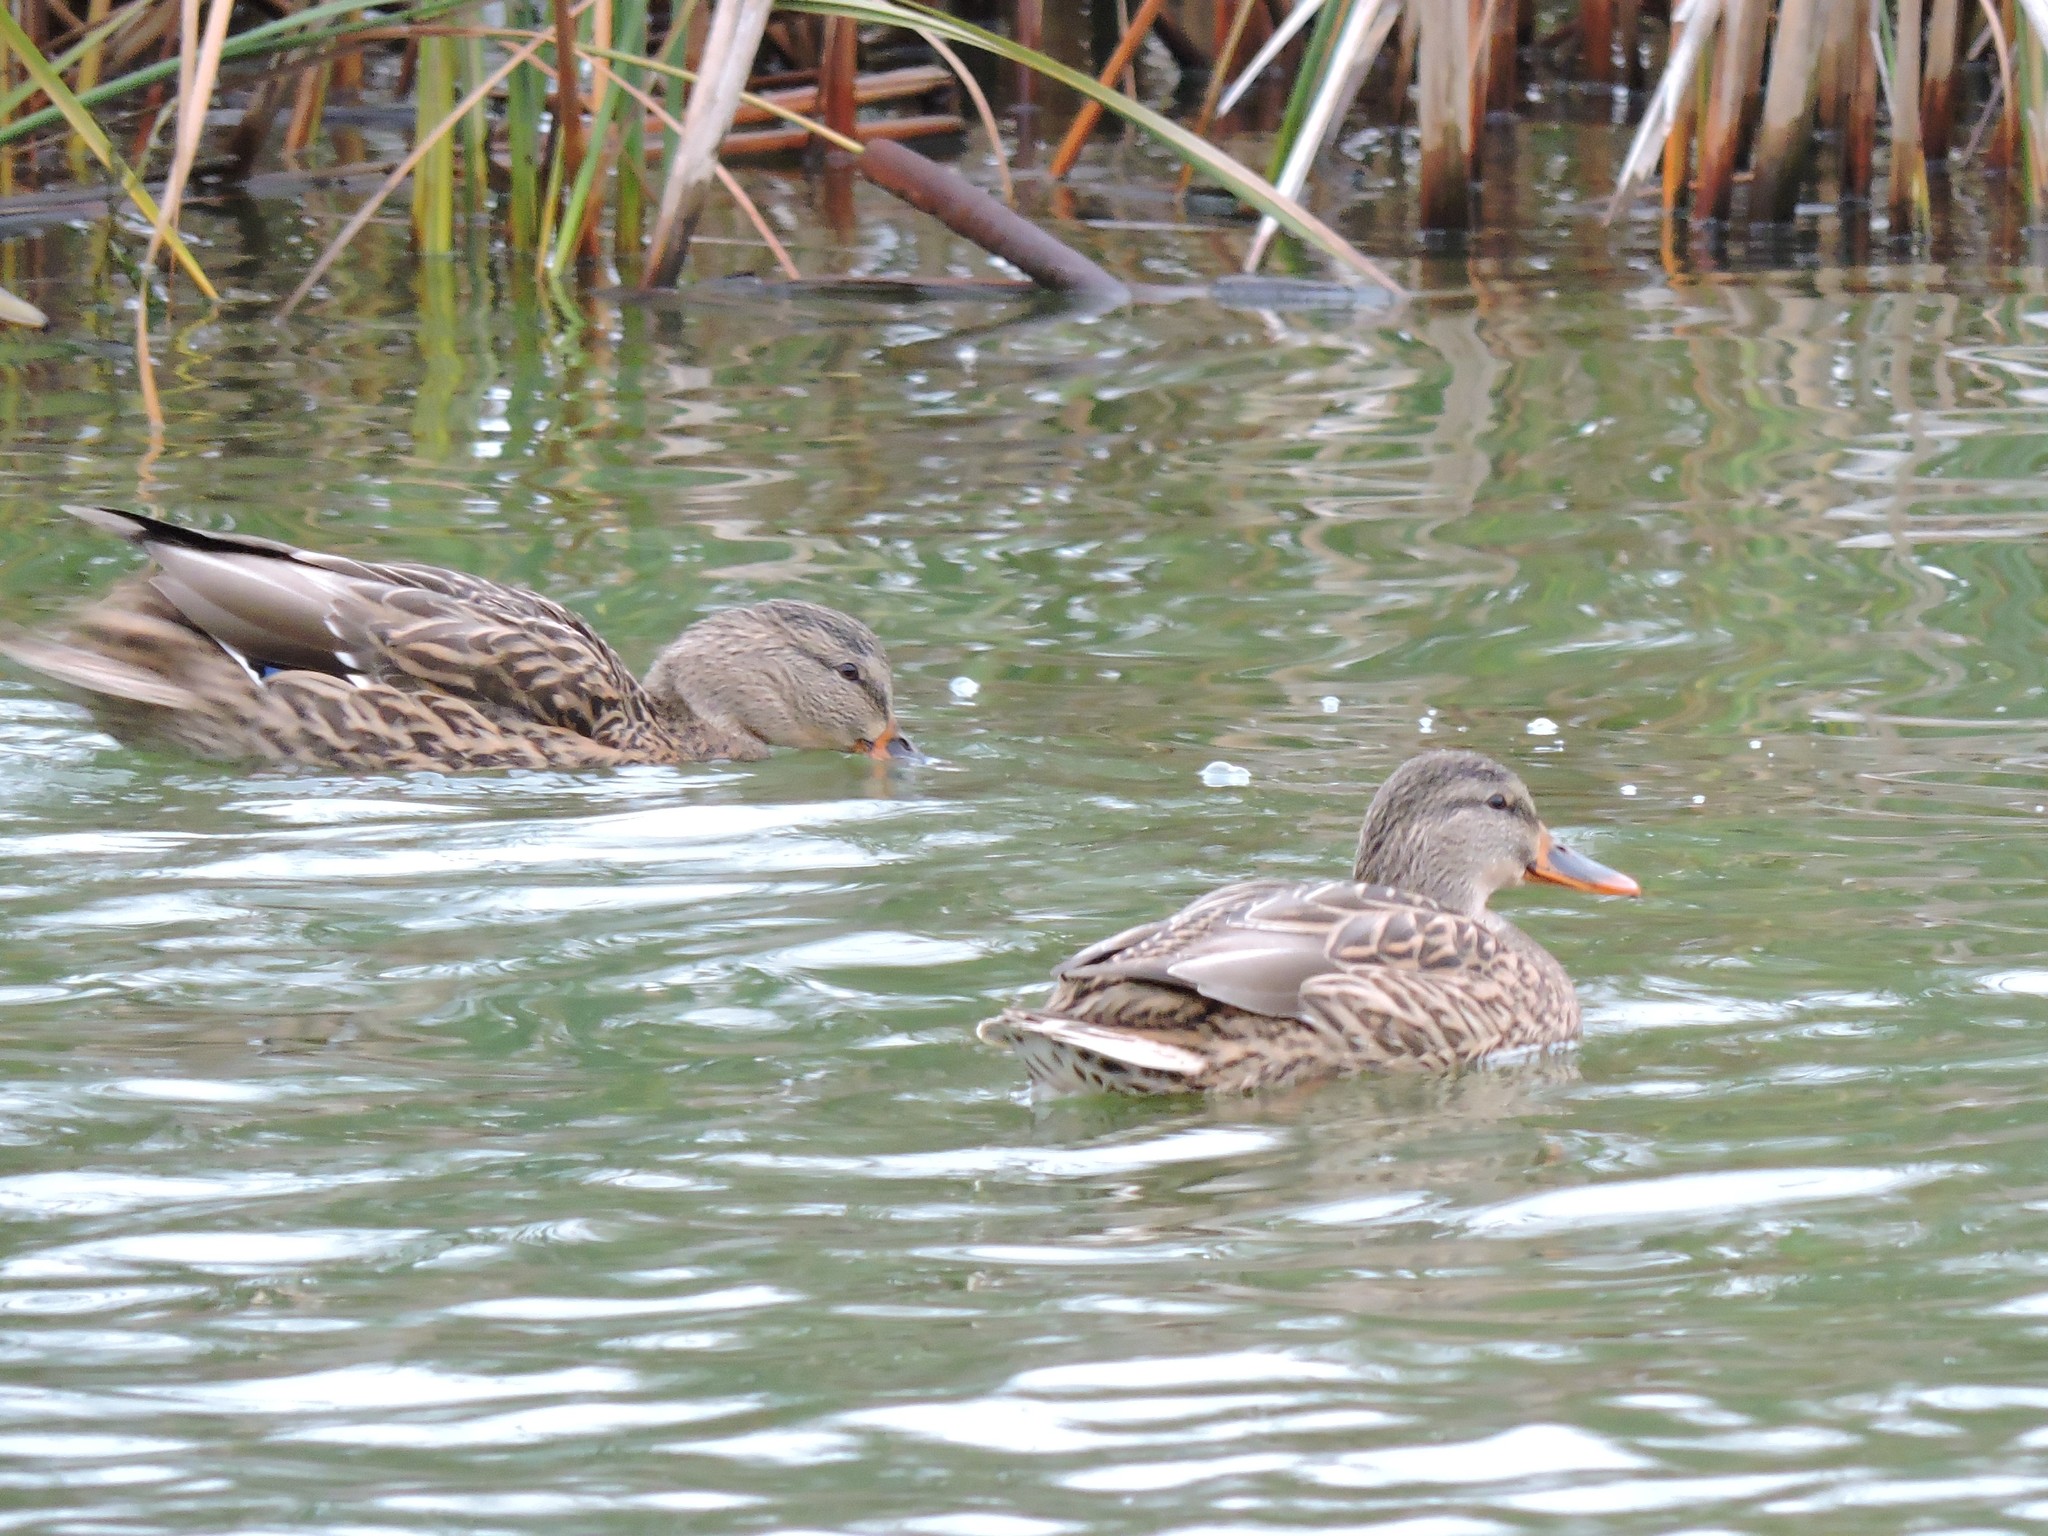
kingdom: Animalia
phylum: Chordata
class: Aves
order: Anseriformes
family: Anatidae
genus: Anas
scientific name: Anas platyrhynchos
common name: Mallard
